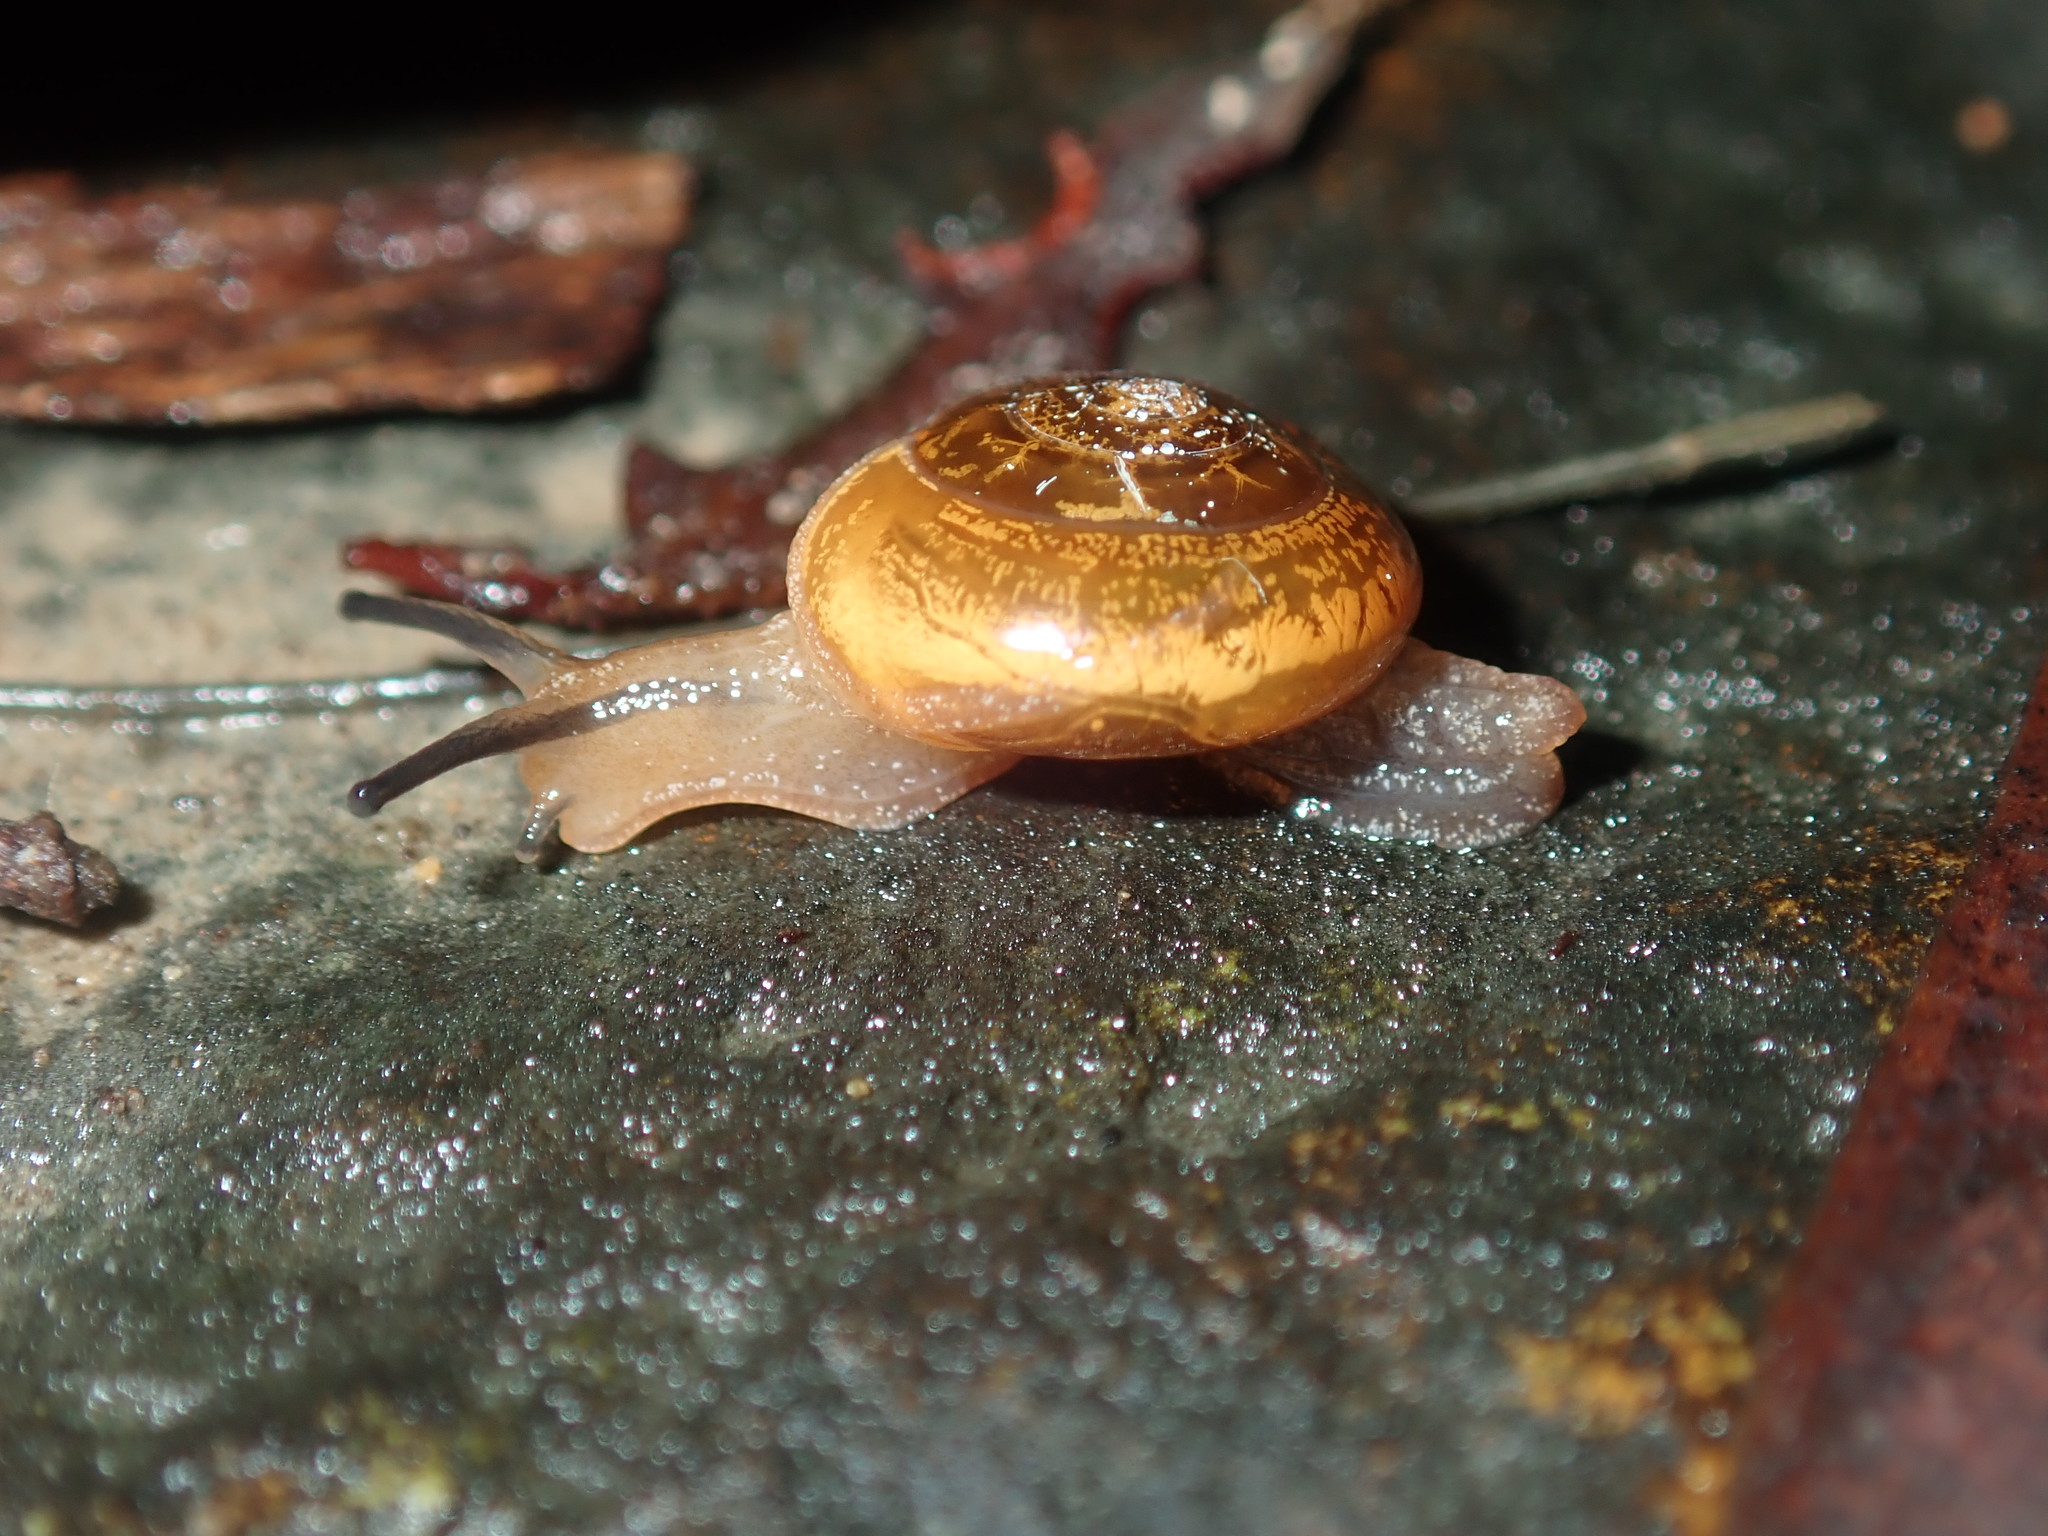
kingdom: Animalia
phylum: Mollusca
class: Gastropoda
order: Stylommatophora
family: Helicarionidae
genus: Nitor
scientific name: Nitor sheai
